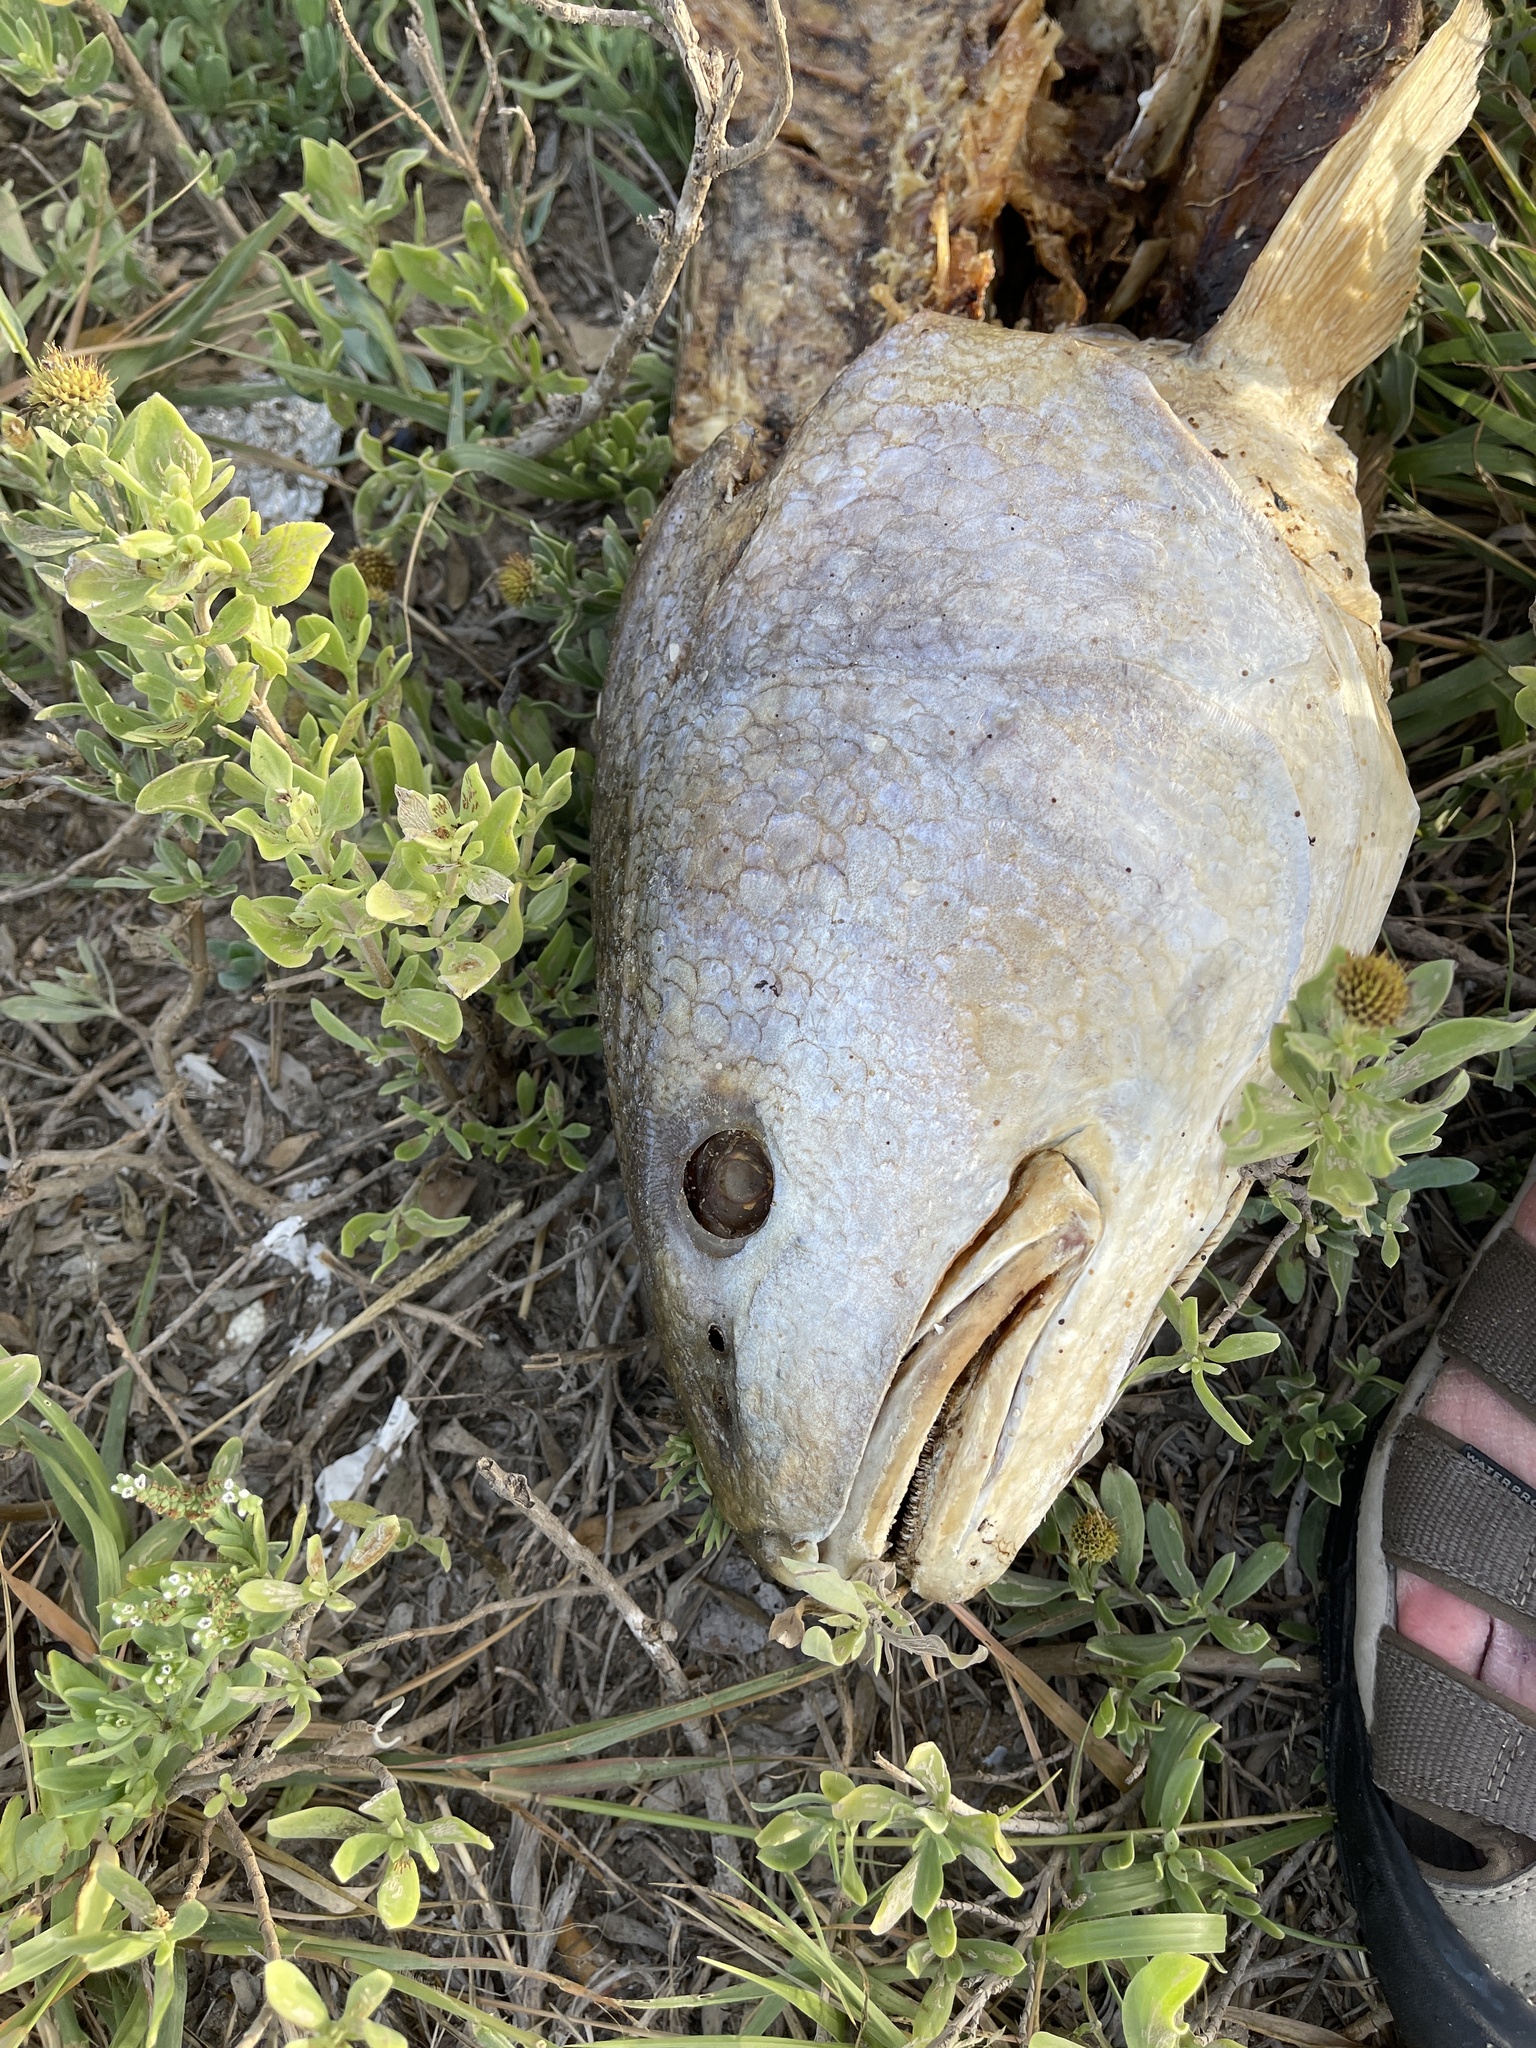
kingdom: Animalia
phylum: Chordata
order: Perciformes
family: Sciaenidae
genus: Sciaenops
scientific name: Sciaenops ocellatus
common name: Red drum
